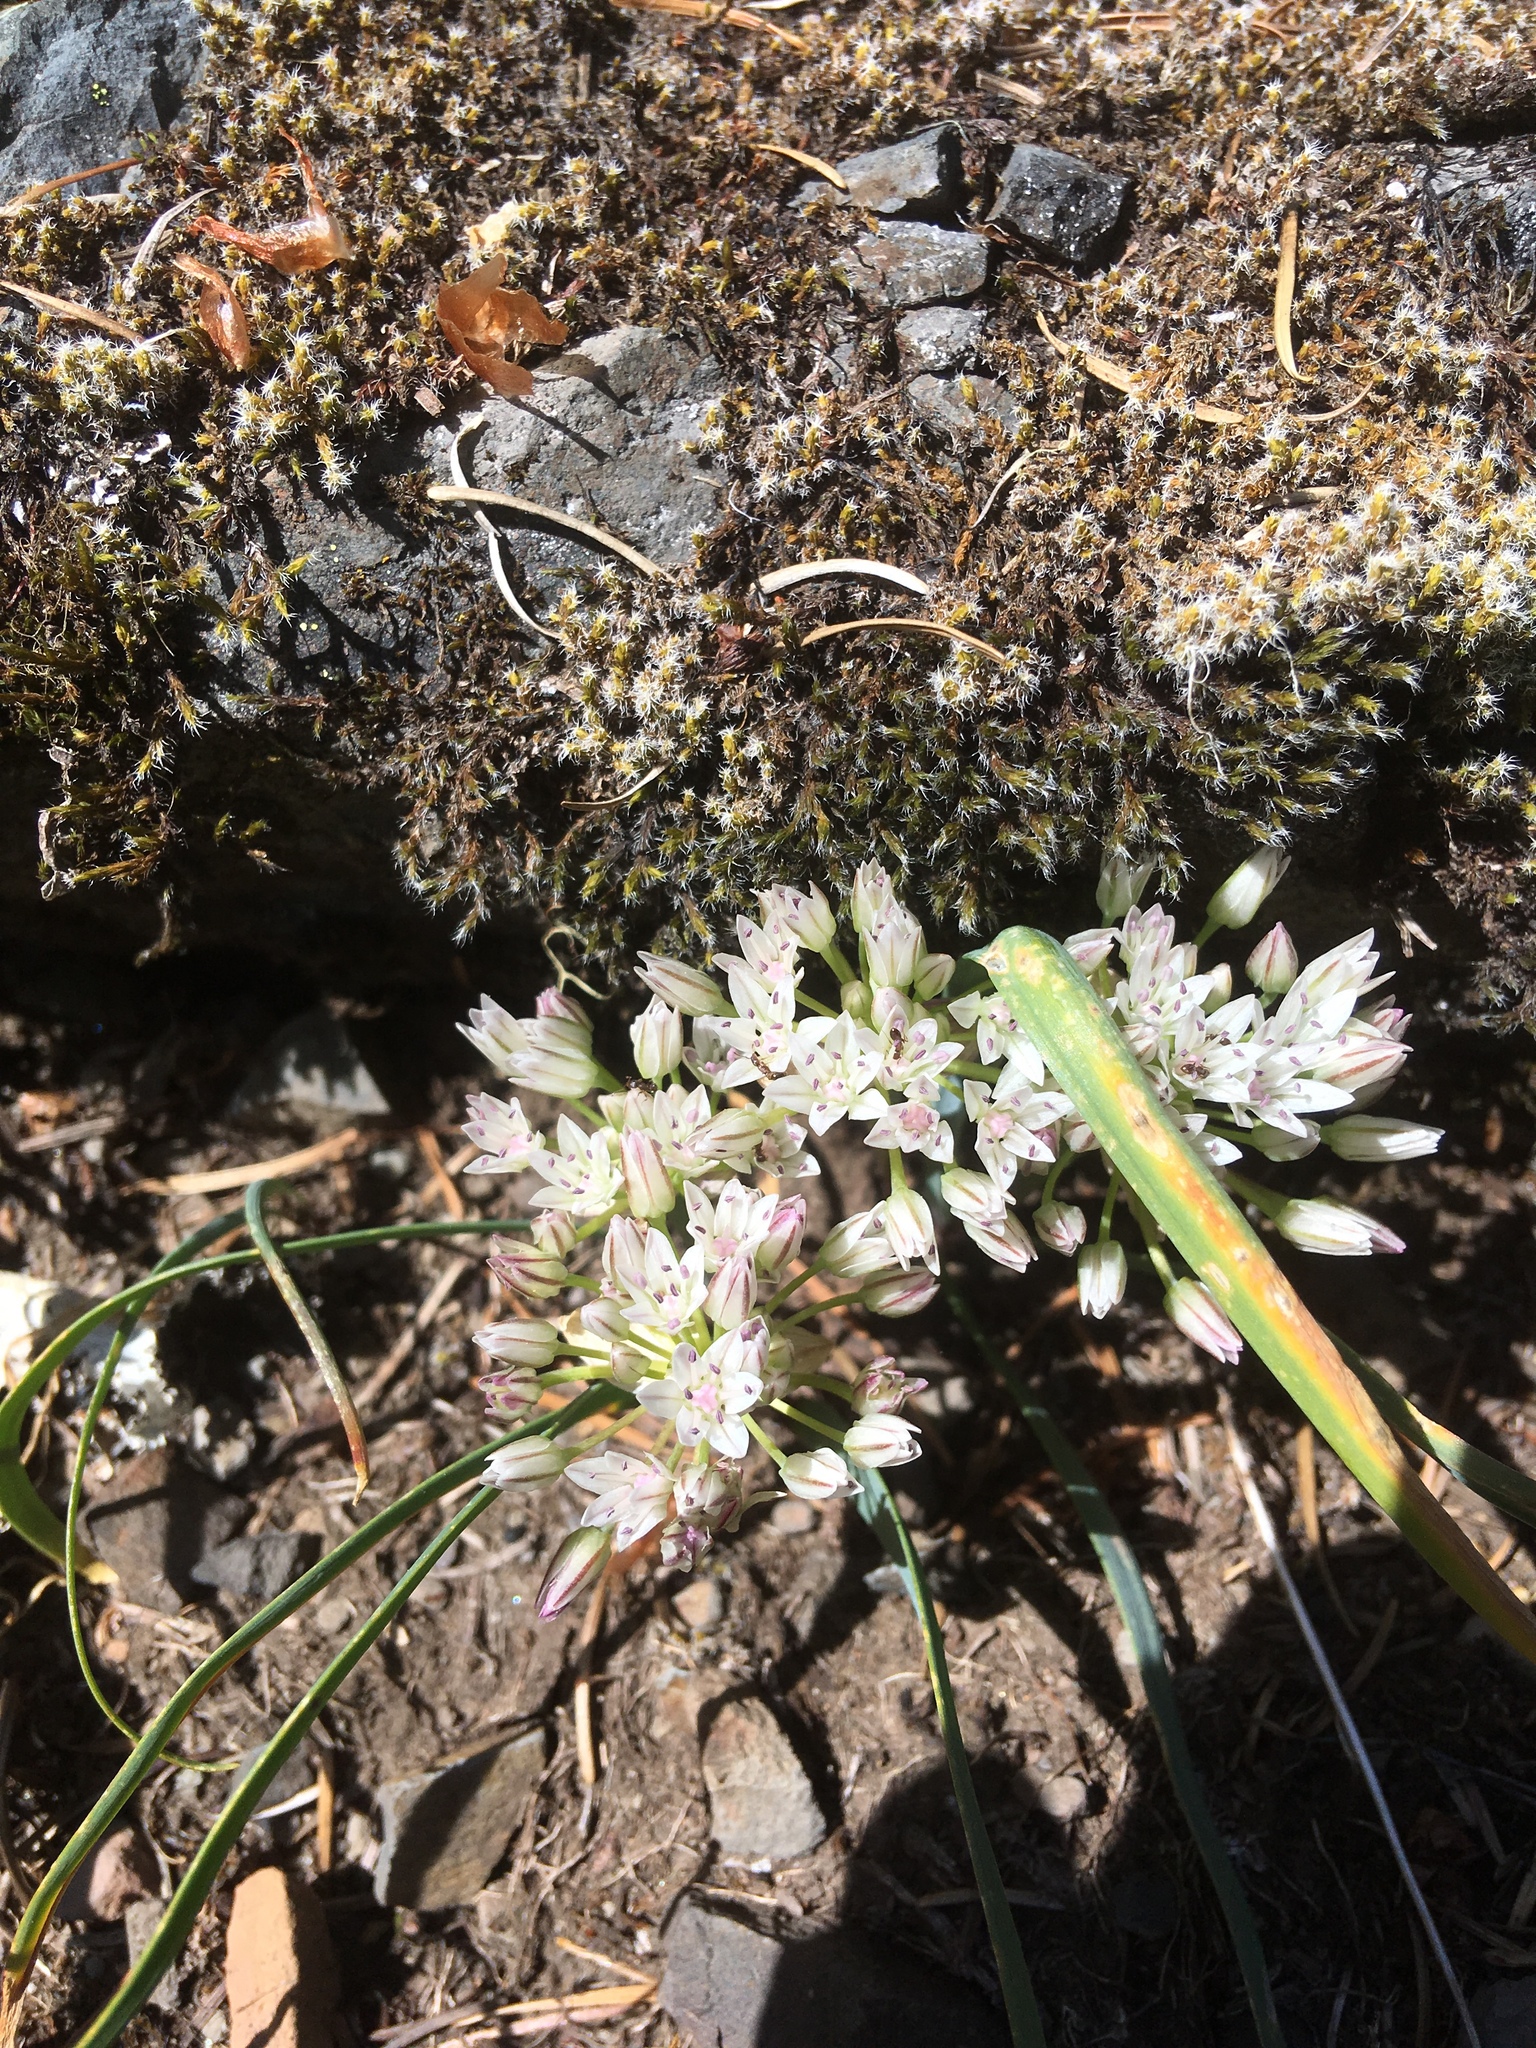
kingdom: Plantae
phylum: Tracheophyta
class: Liliopsida
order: Asparagales
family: Amaryllidaceae
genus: Allium
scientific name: Allium crenulatum
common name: Olympic onion
